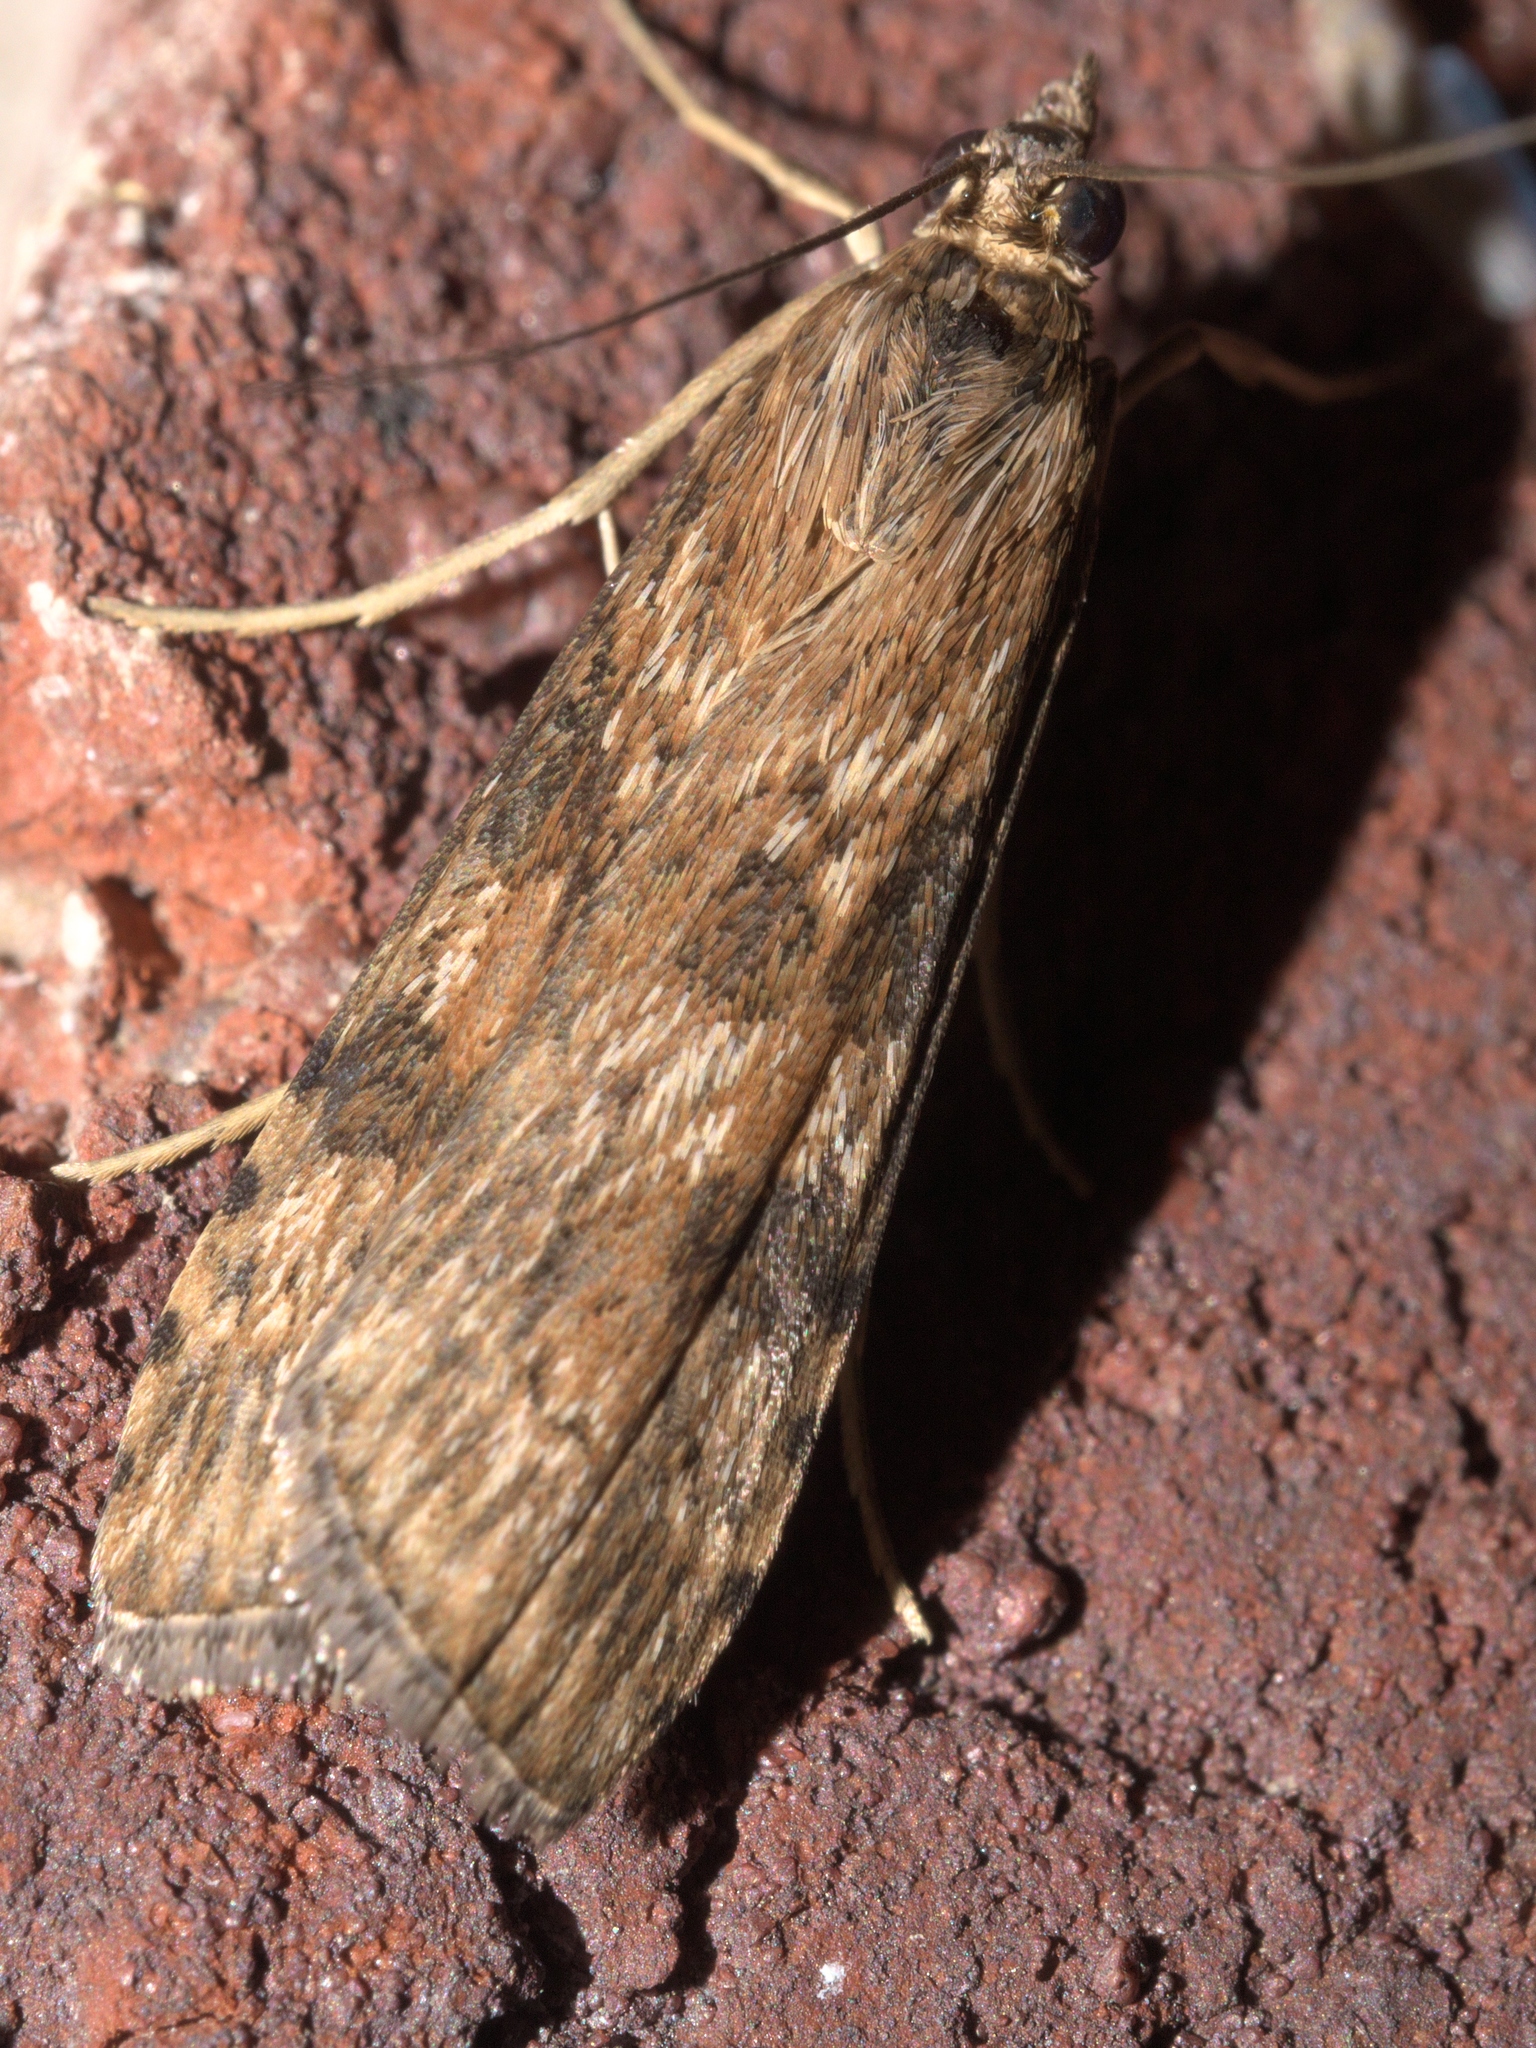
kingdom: Animalia
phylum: Arthropoda
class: Insecta
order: Lepidoptera
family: Crambidae
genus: Nomophila
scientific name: Nomophila nearctica
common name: American rush veneer
